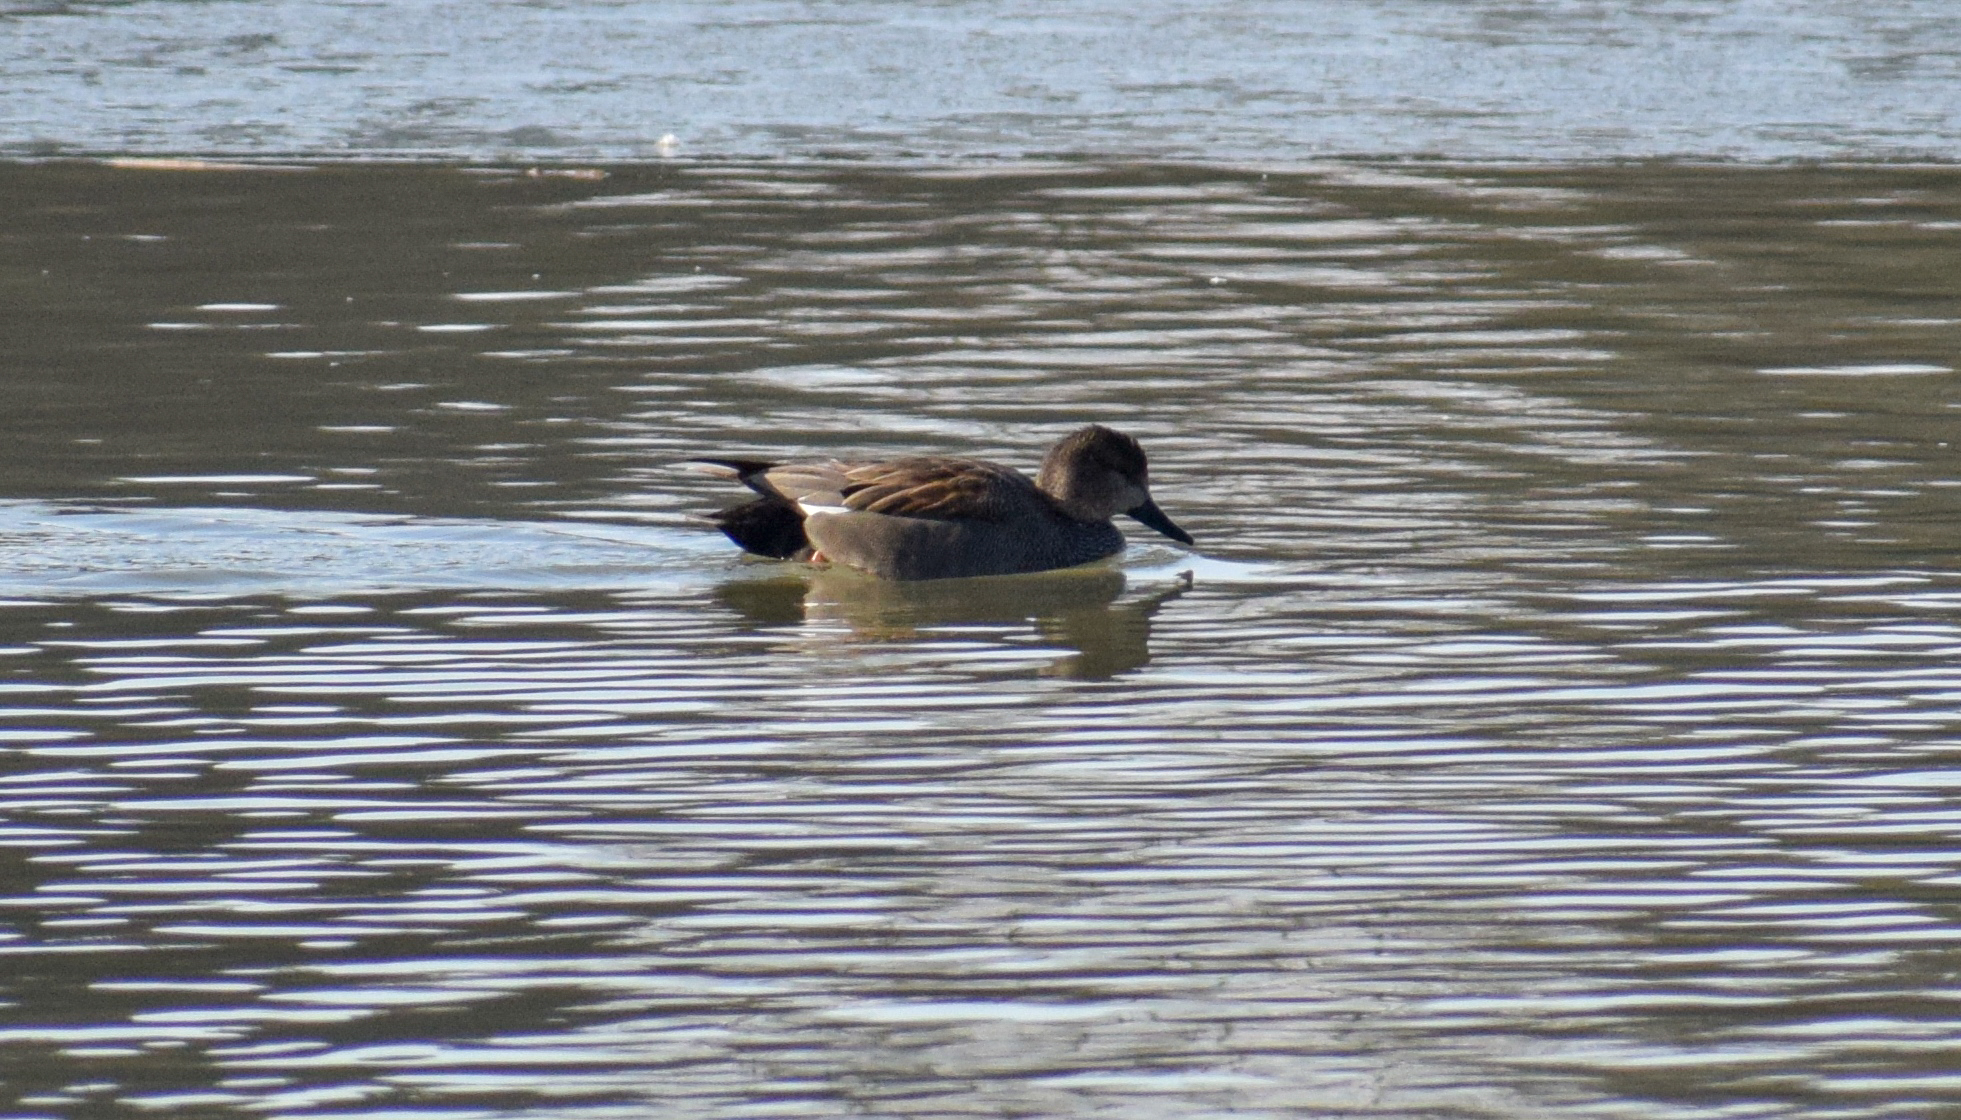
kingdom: Animalia
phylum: Chordata
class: Aves
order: Anseriformes
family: Anatidae
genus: Mareca
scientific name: Mareca strepera
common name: Gadwall
